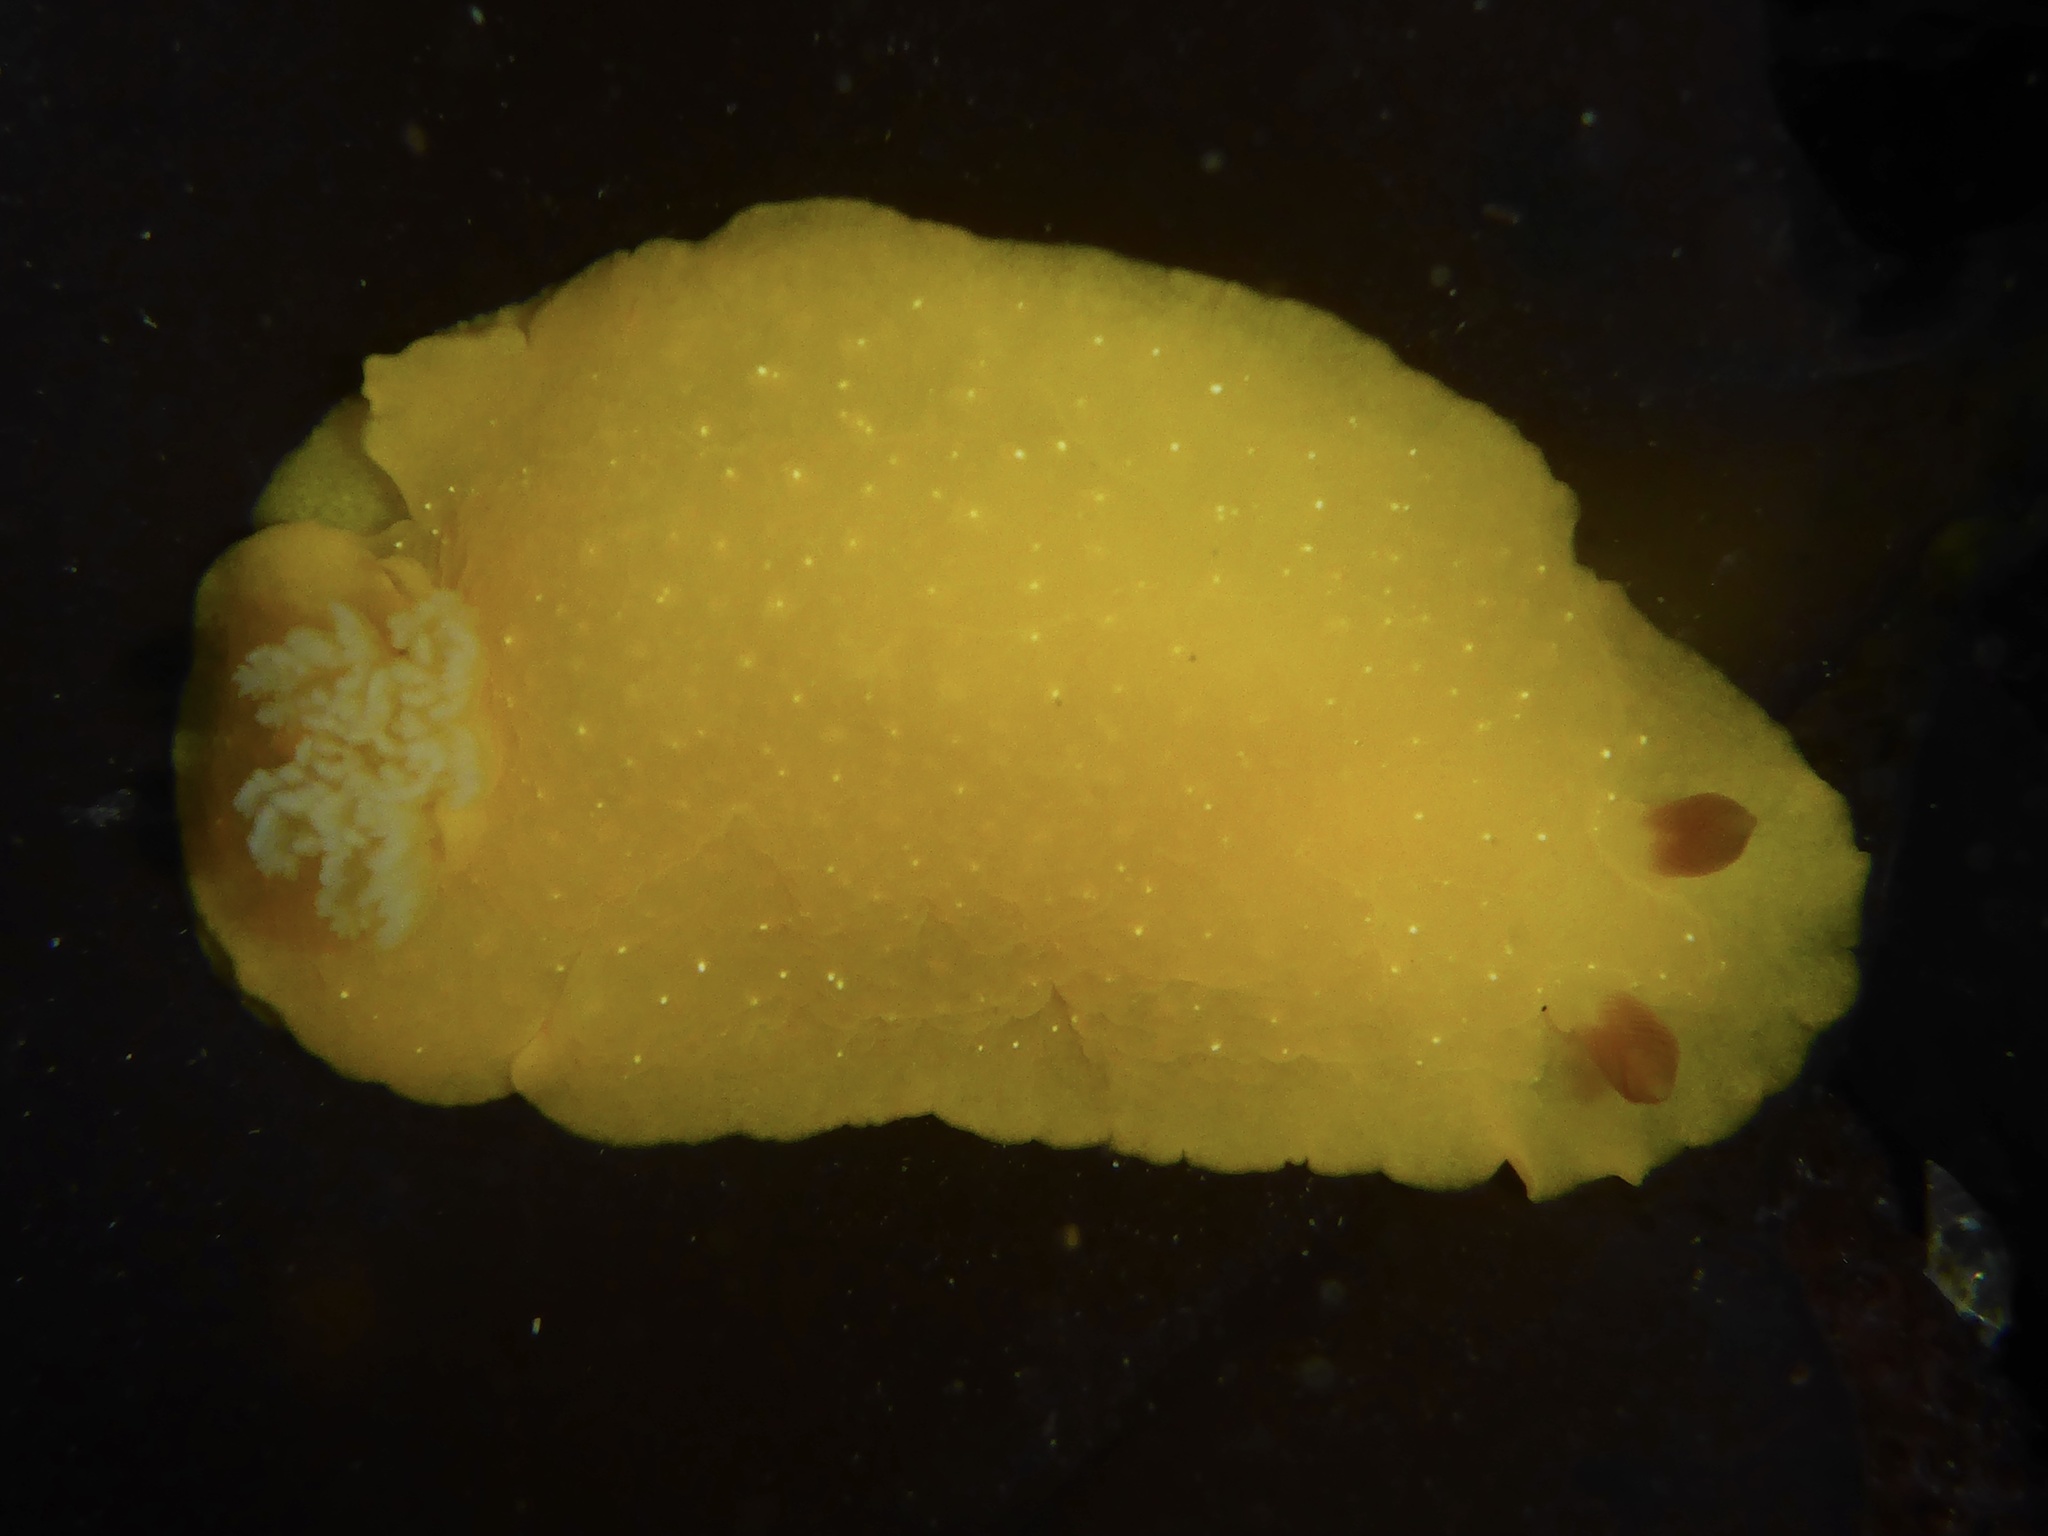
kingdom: Animalia
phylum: Mollusca
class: Gastropoda
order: Nudibranchia
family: Dendrodorididae
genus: Doriopsilla
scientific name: Doriopsilla fulva
